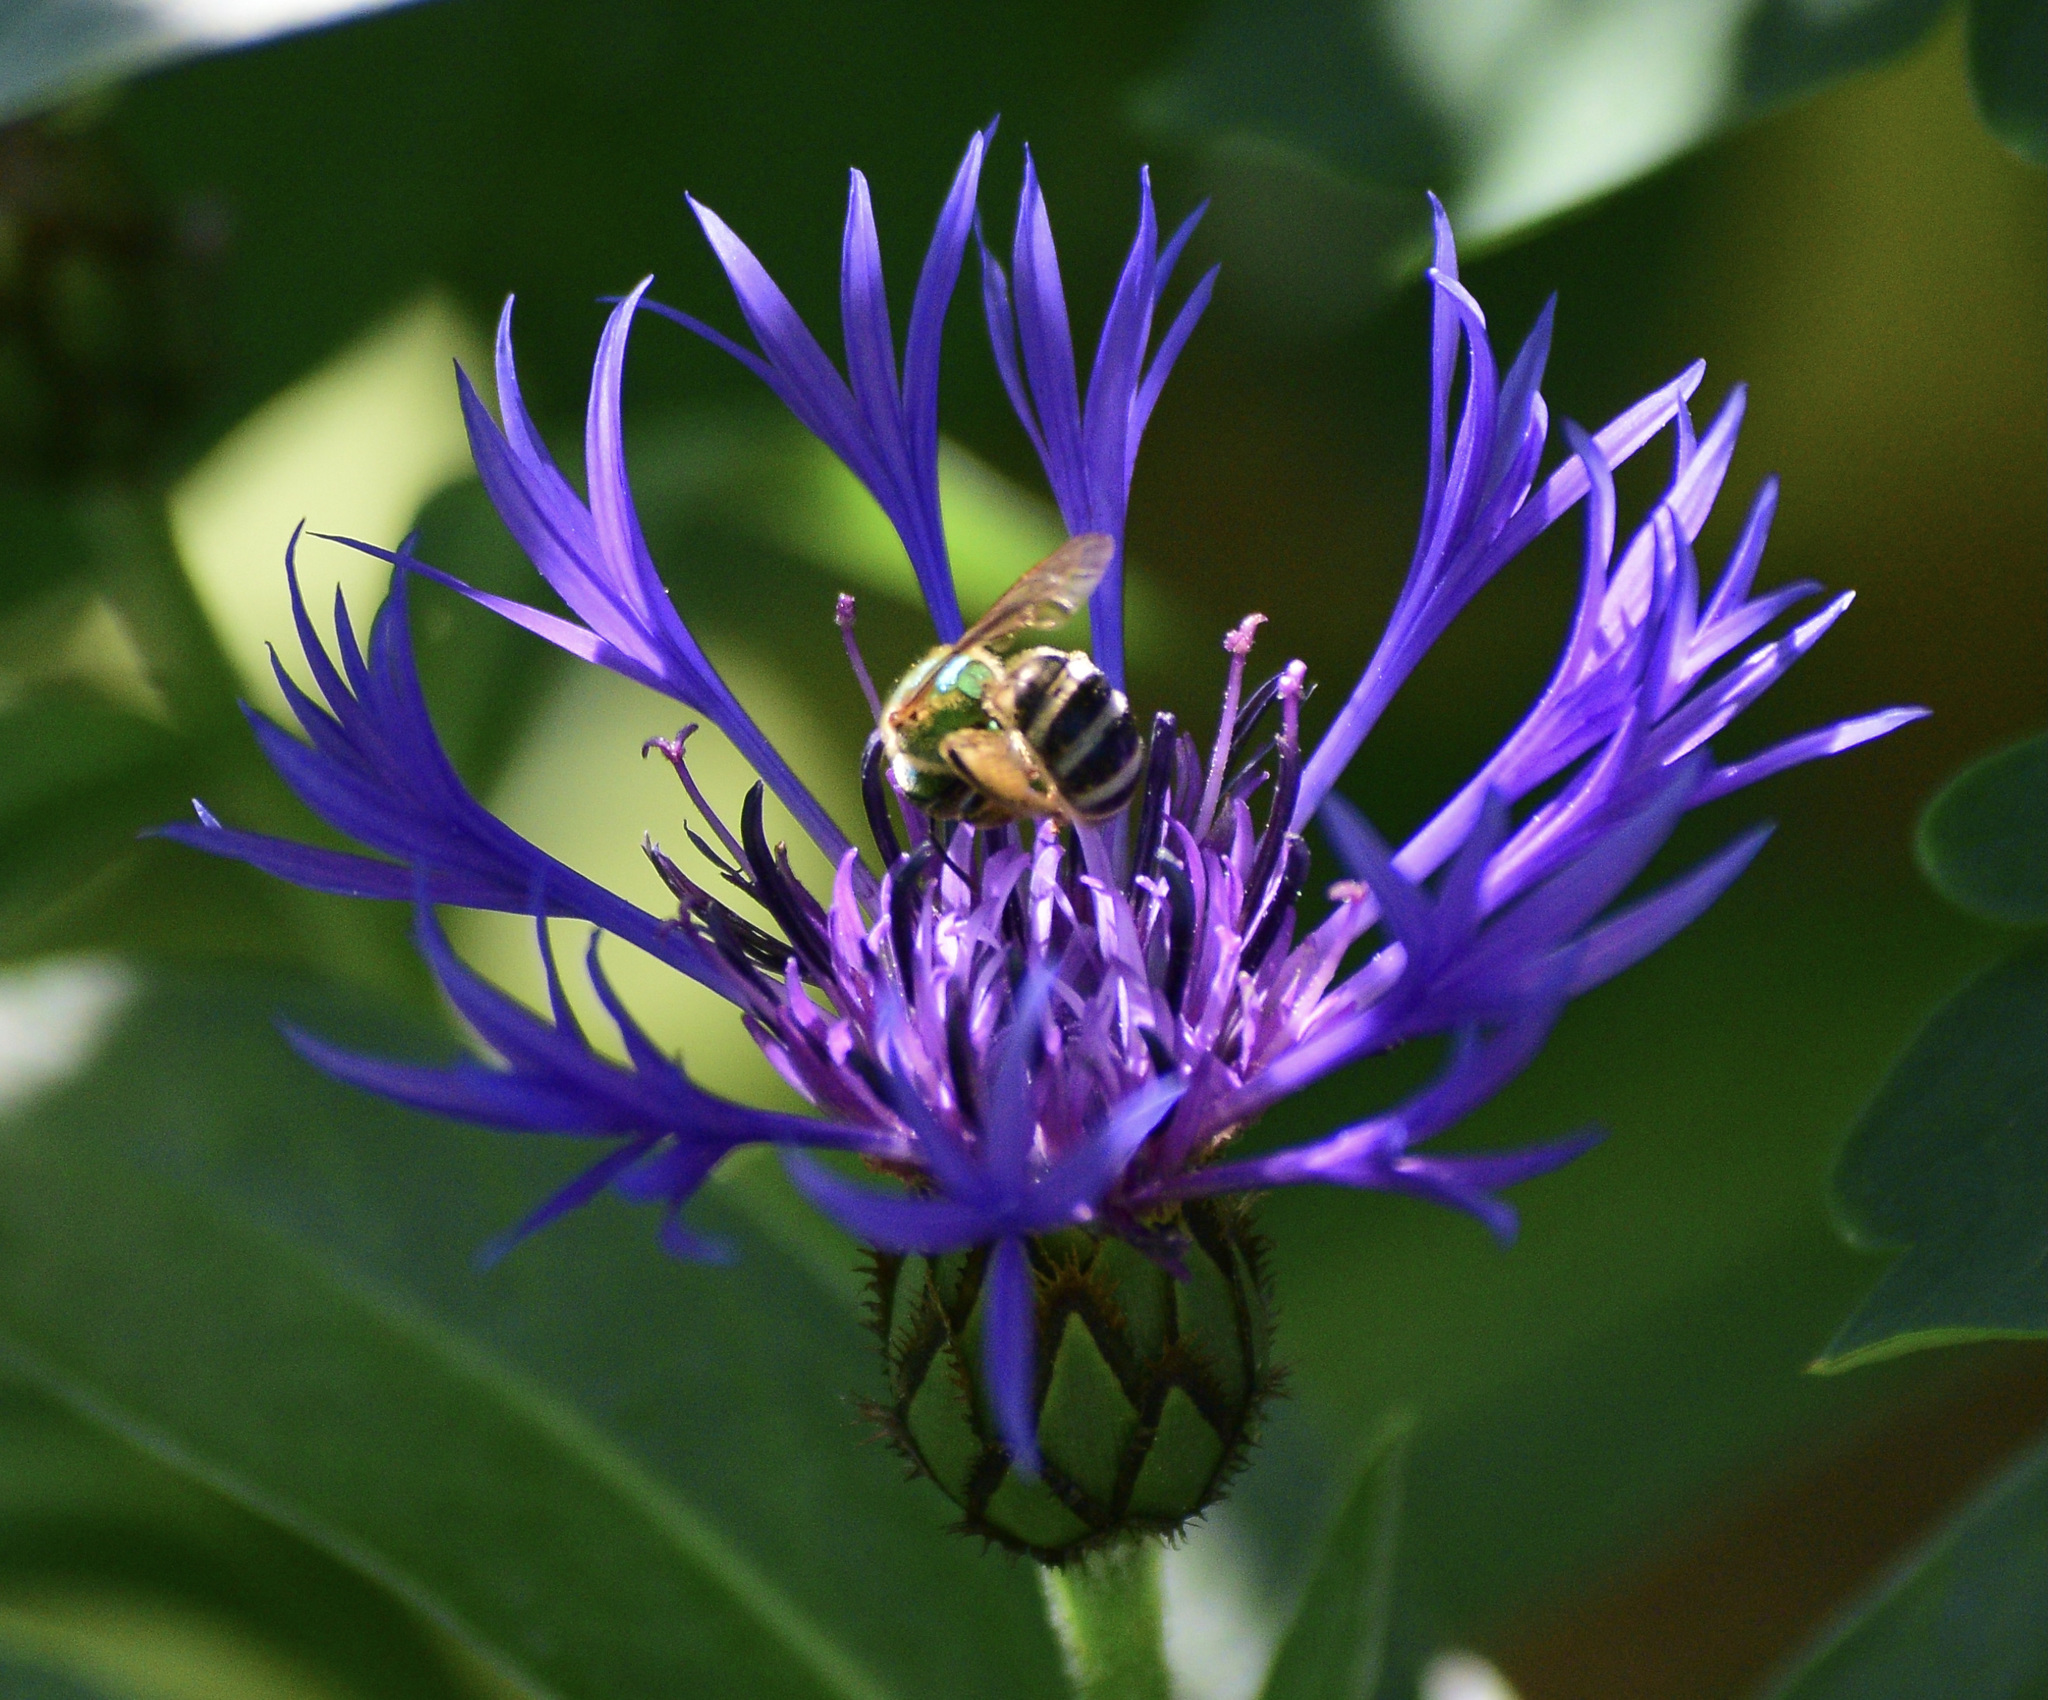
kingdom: Animalia
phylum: Arthropoda
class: Insecta
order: Hymenoptera
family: Halictidae
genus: Agapostemon
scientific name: Agapostemon virescens
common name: Bicolored striped sweat bee
